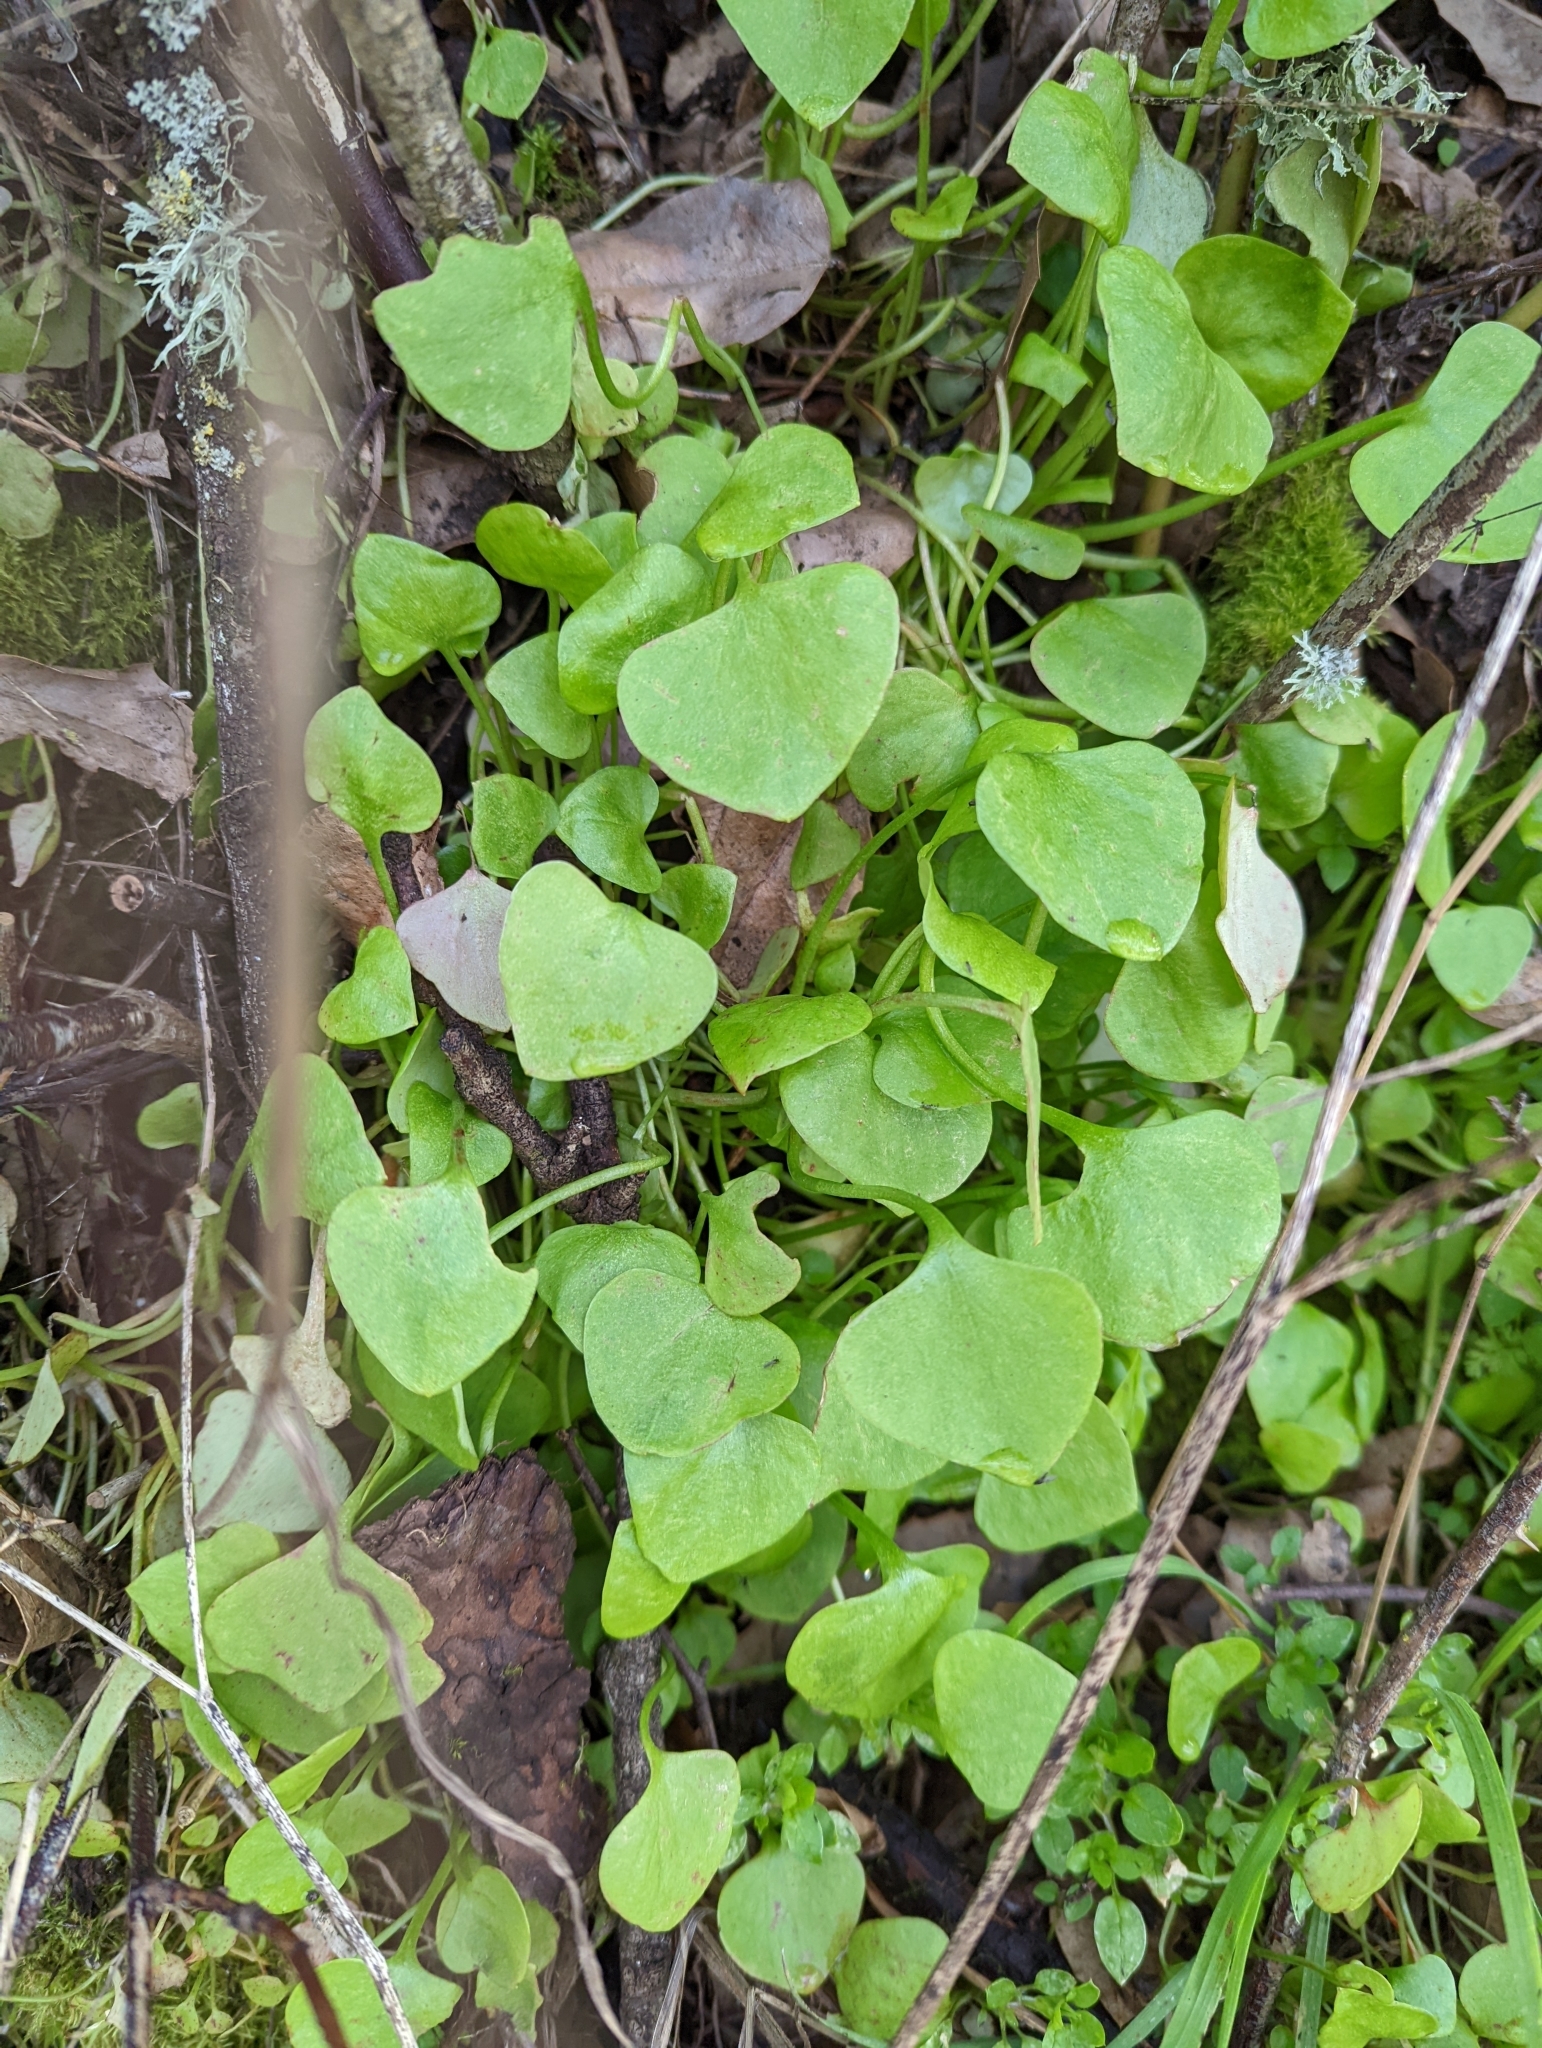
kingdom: Plantae
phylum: Tracheophyta
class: Magnoliopsida
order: Caryophyllales
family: Montiaceae
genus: Claytonia
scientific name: Claytonia perfoliata
